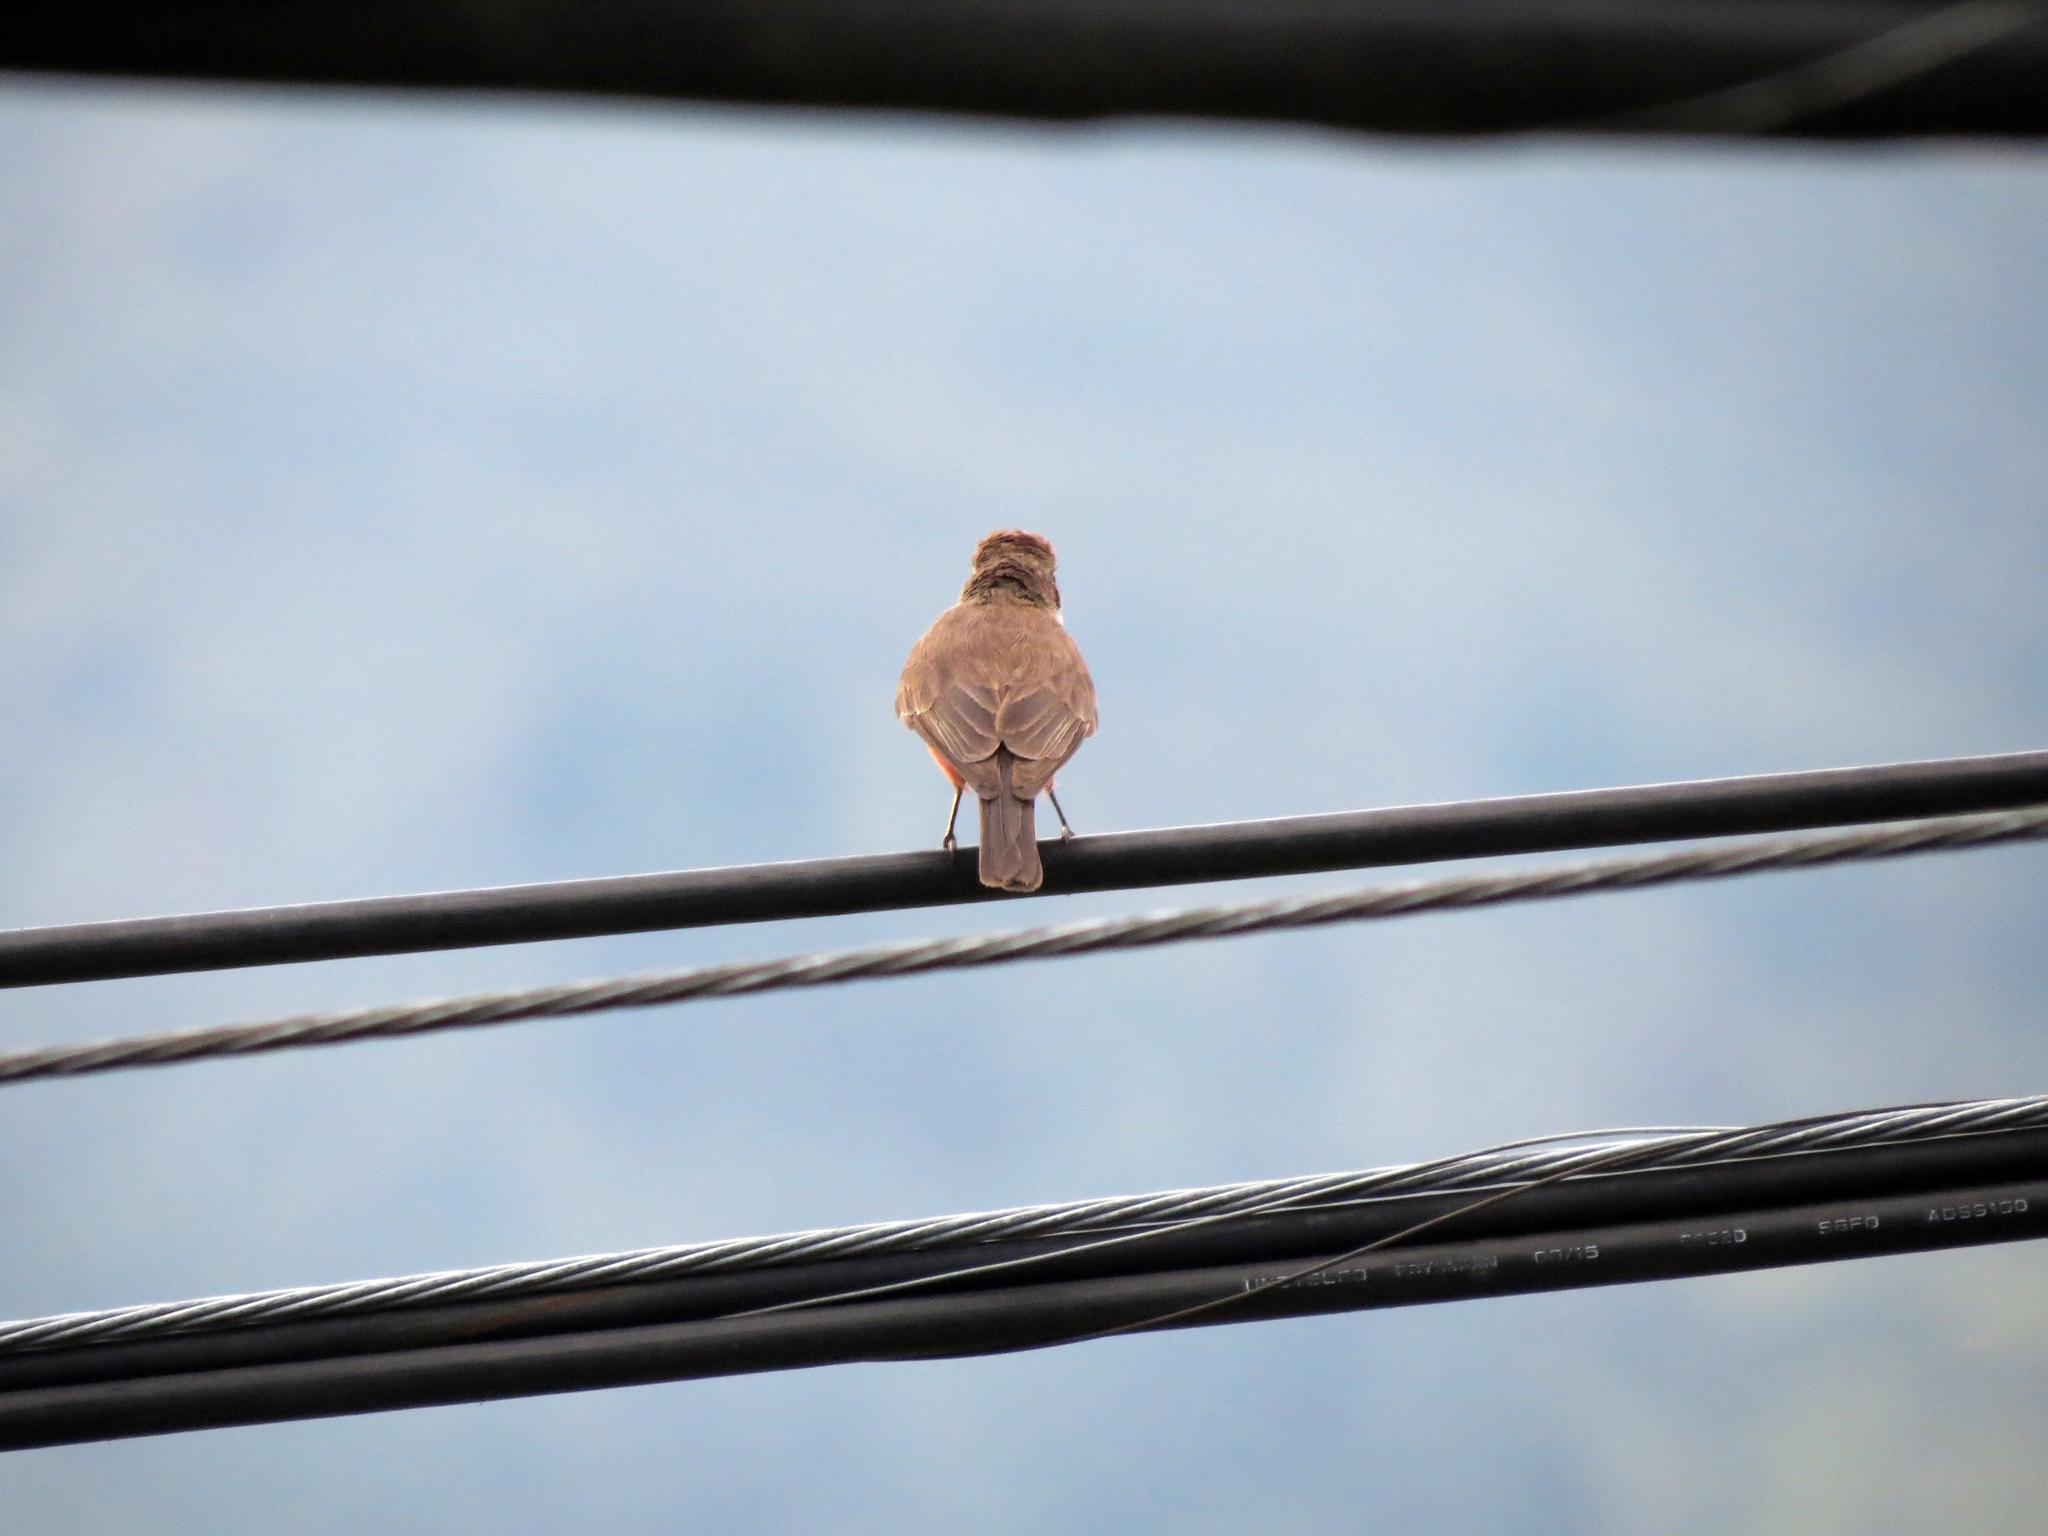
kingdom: Animalia
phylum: Chordata
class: Aves
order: Passeriformes
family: Tyrannidae
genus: Pyrocephalus
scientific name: Pyrocephalus rubinus
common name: Vermilion flycatcher
